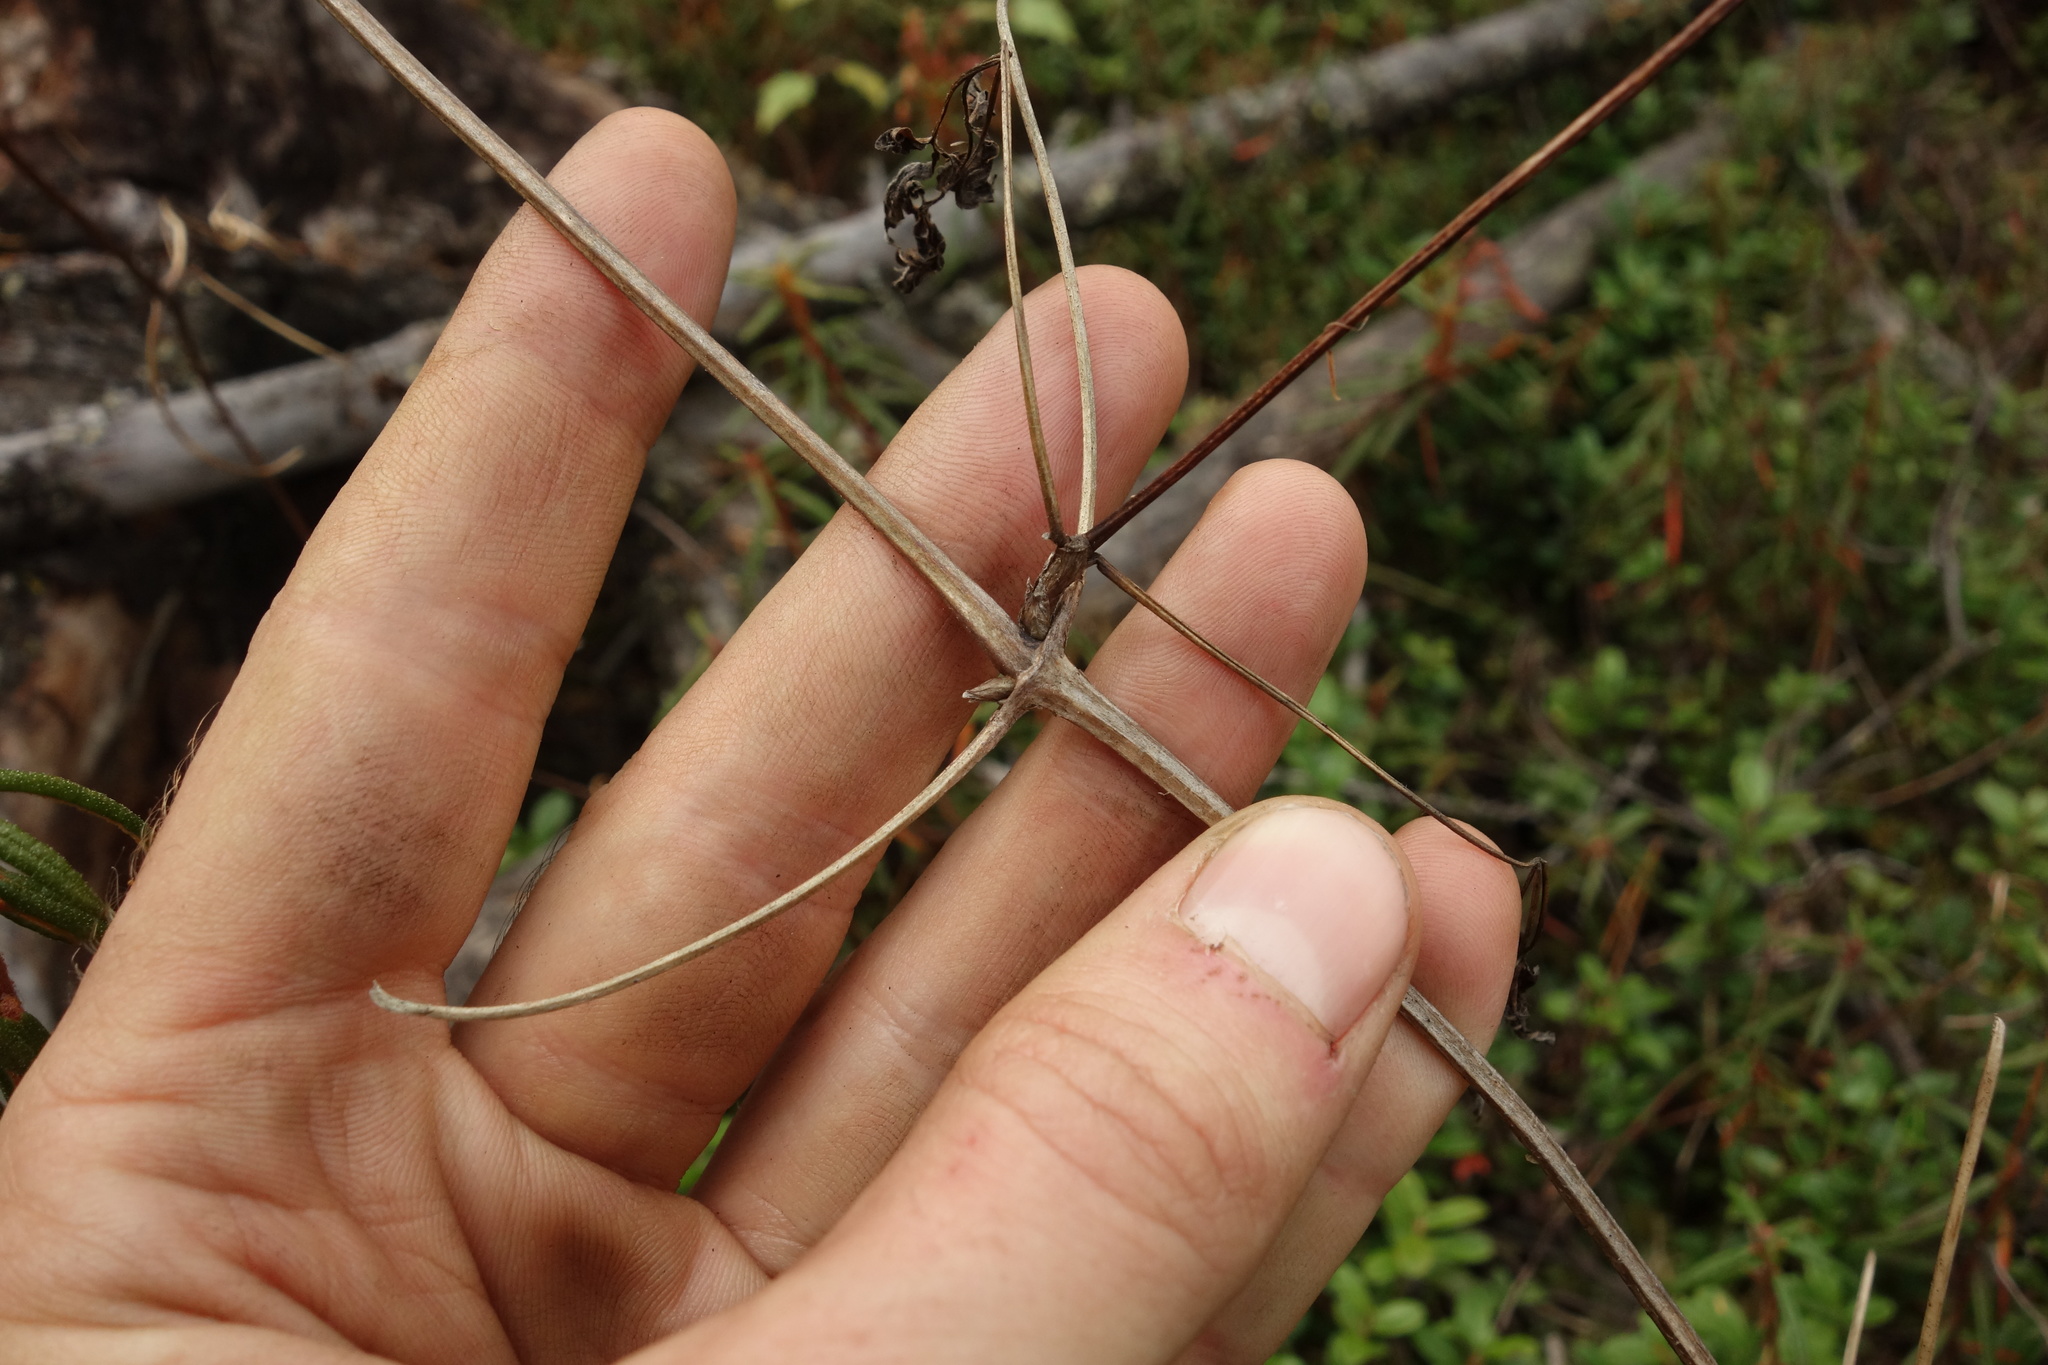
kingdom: Plantae
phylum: Tracheophyta
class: Magnoliopsida
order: Ranunculales
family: Ranunculaceae
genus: Clematis
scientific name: Clematis sibirica
